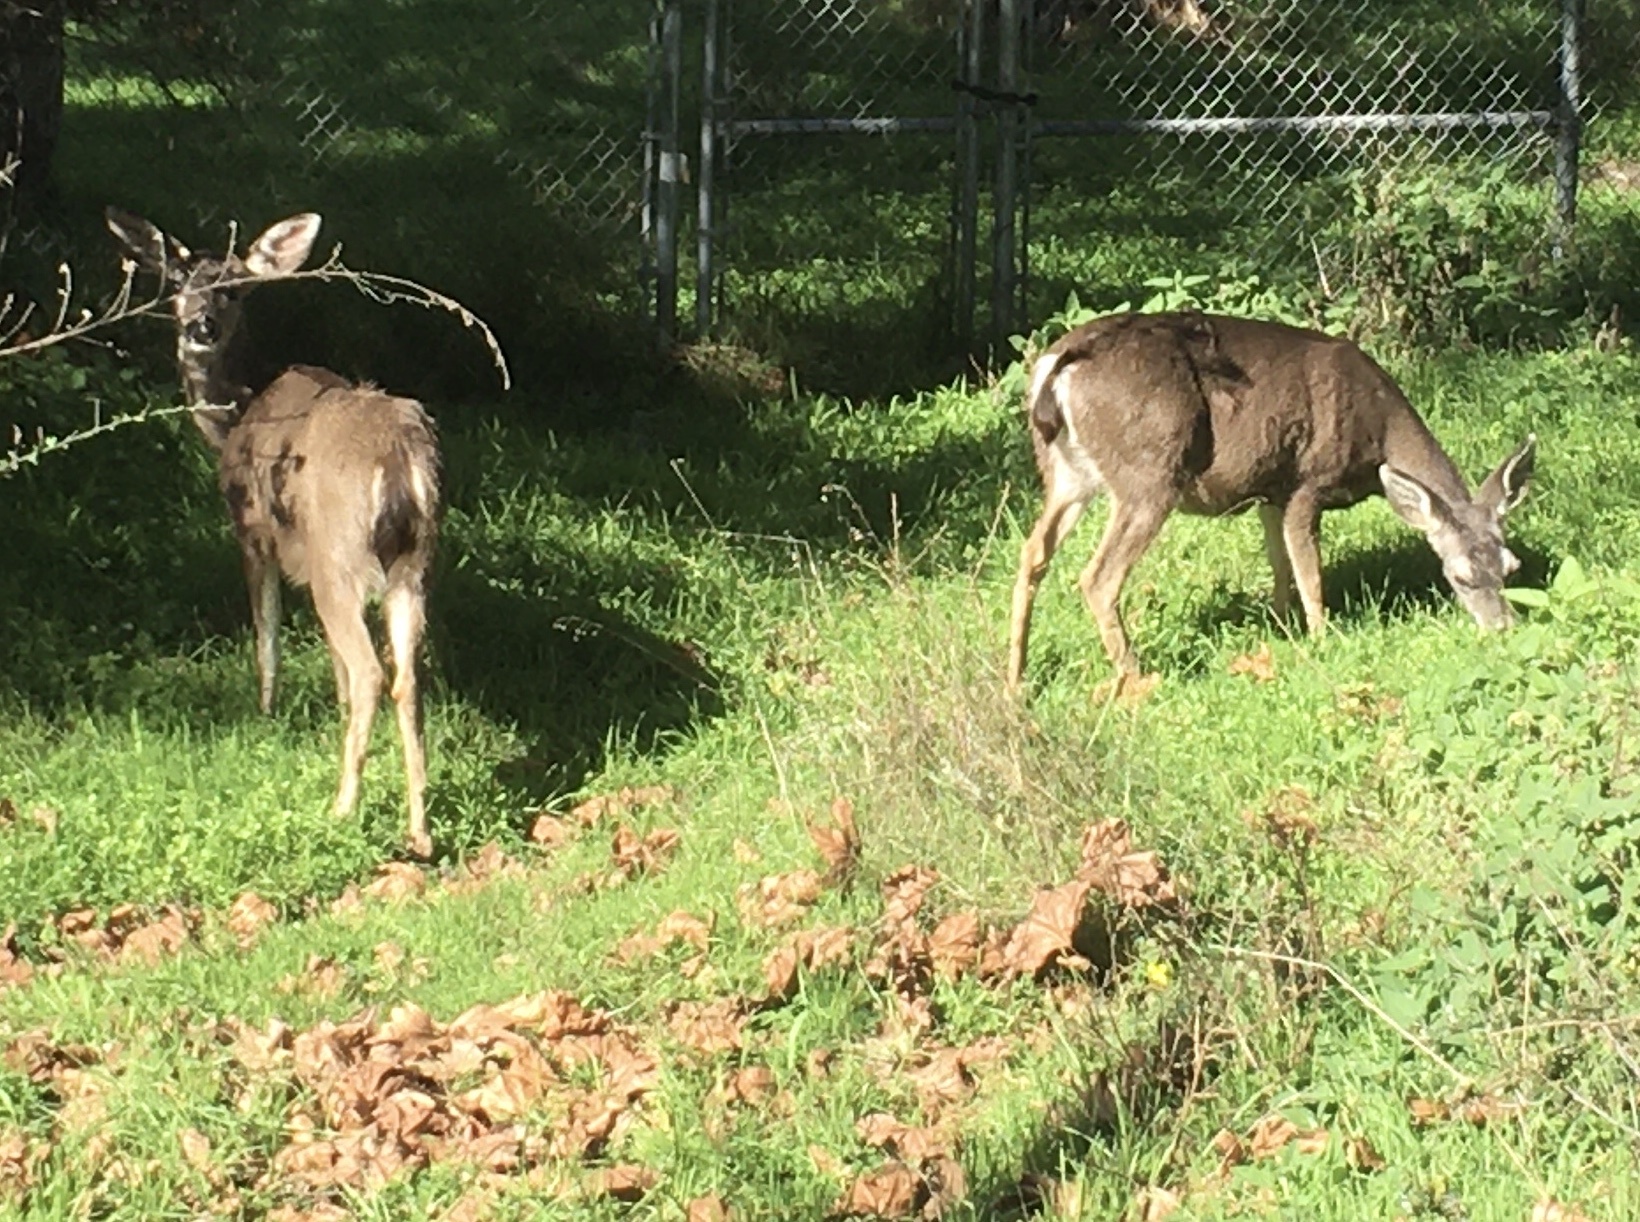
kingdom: Animalia
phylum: Chordata
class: Mammalia
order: Artiodactyla
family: Cervidae
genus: Odocoileus
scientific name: Odocoileus hemionus
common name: Mule deer
